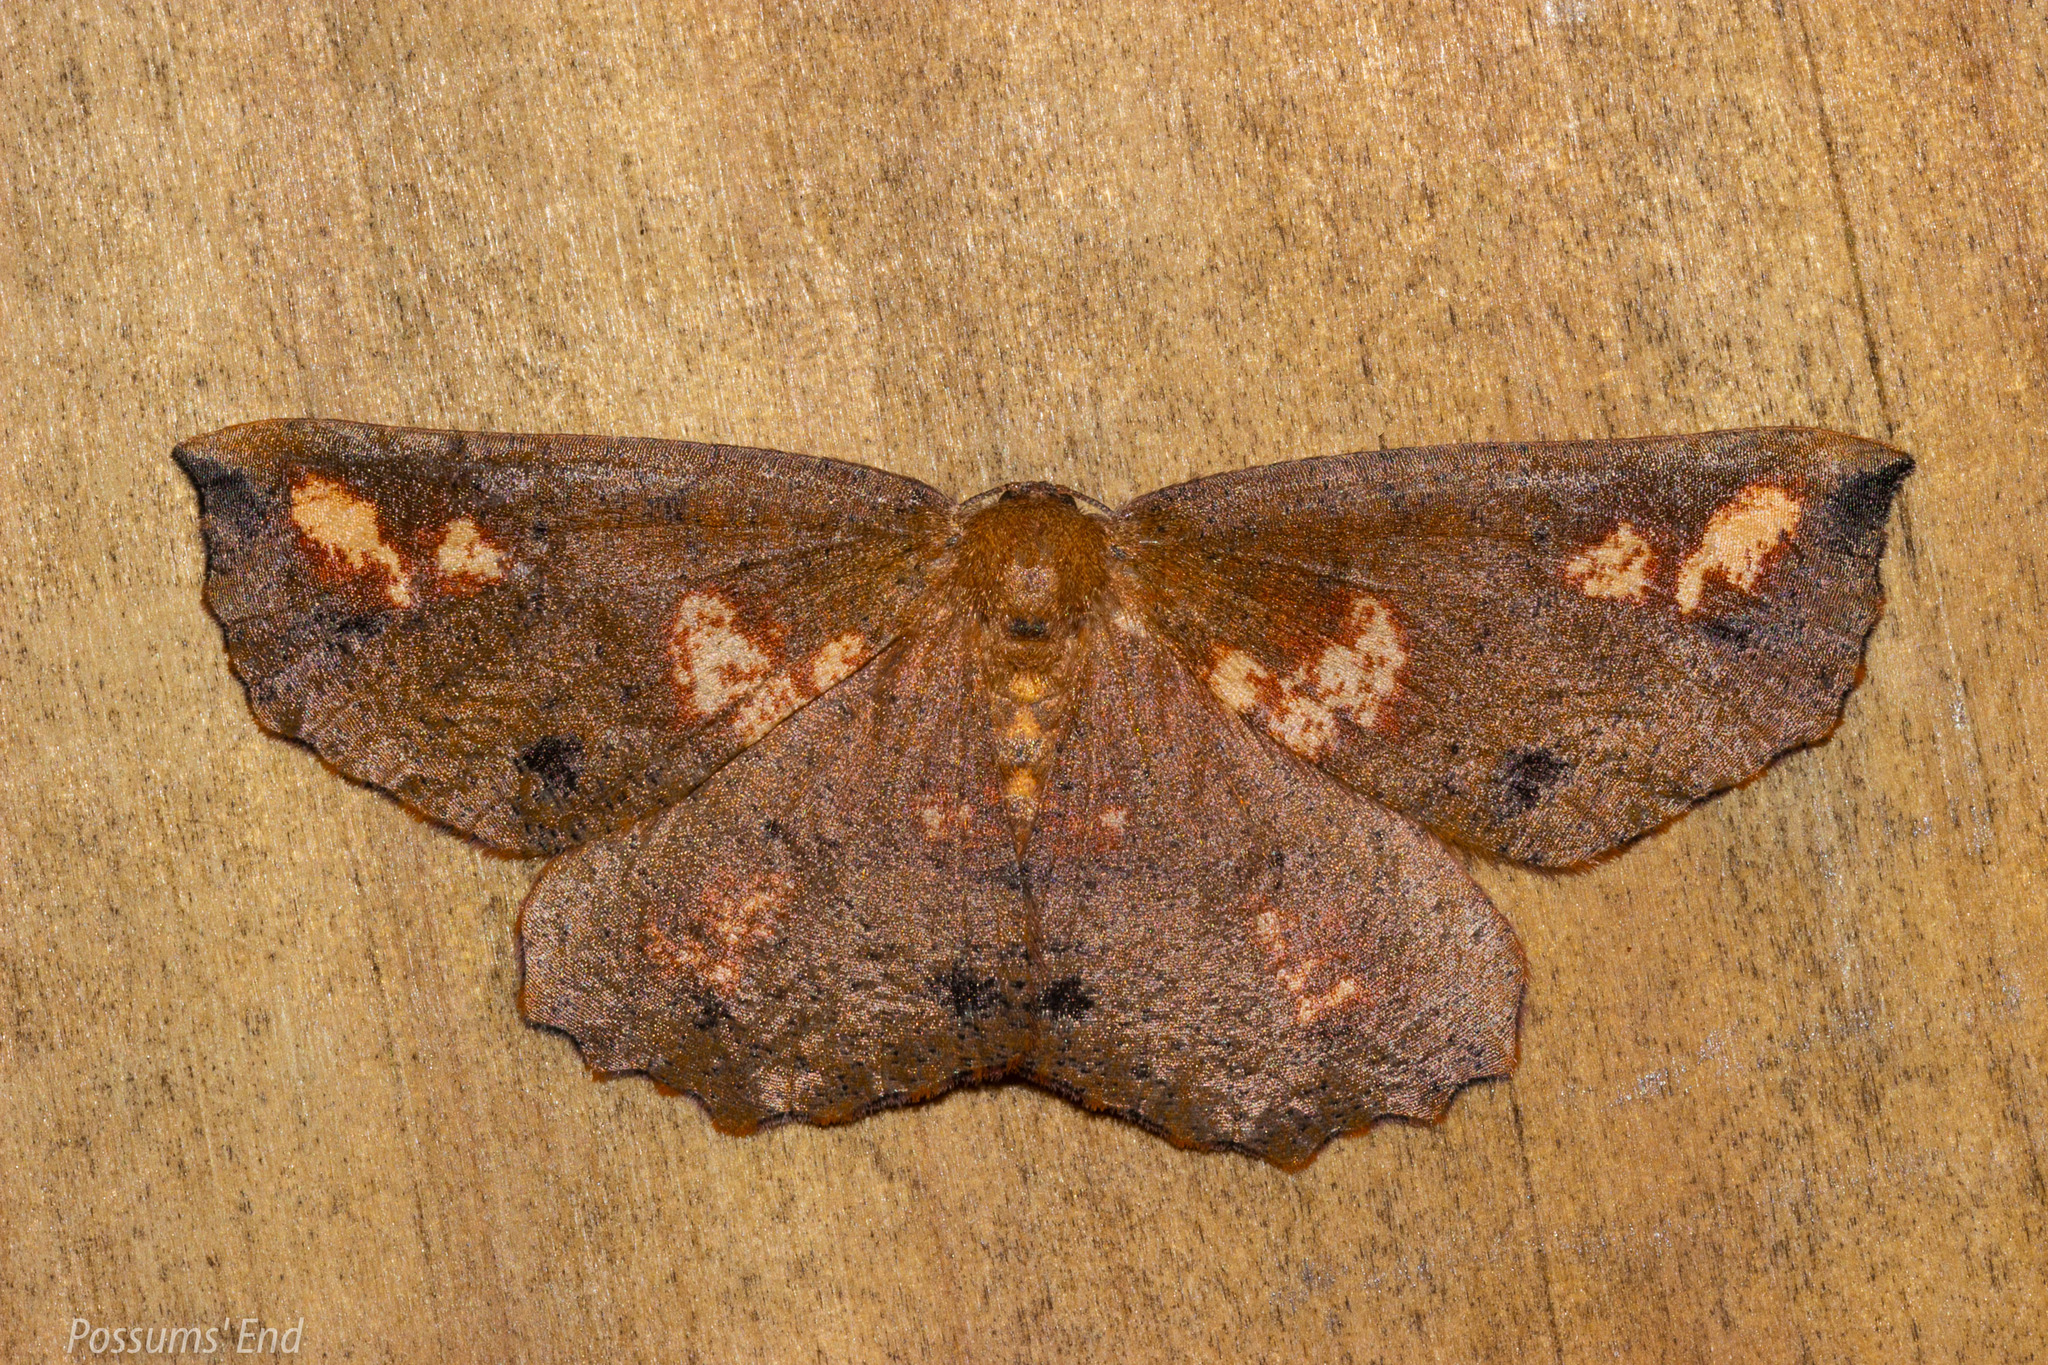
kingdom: Animalia
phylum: Arthropoda
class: Insecta
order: Lepidoptera
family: Geometridae
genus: Xyridacma
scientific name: Xyridacma ustaria
